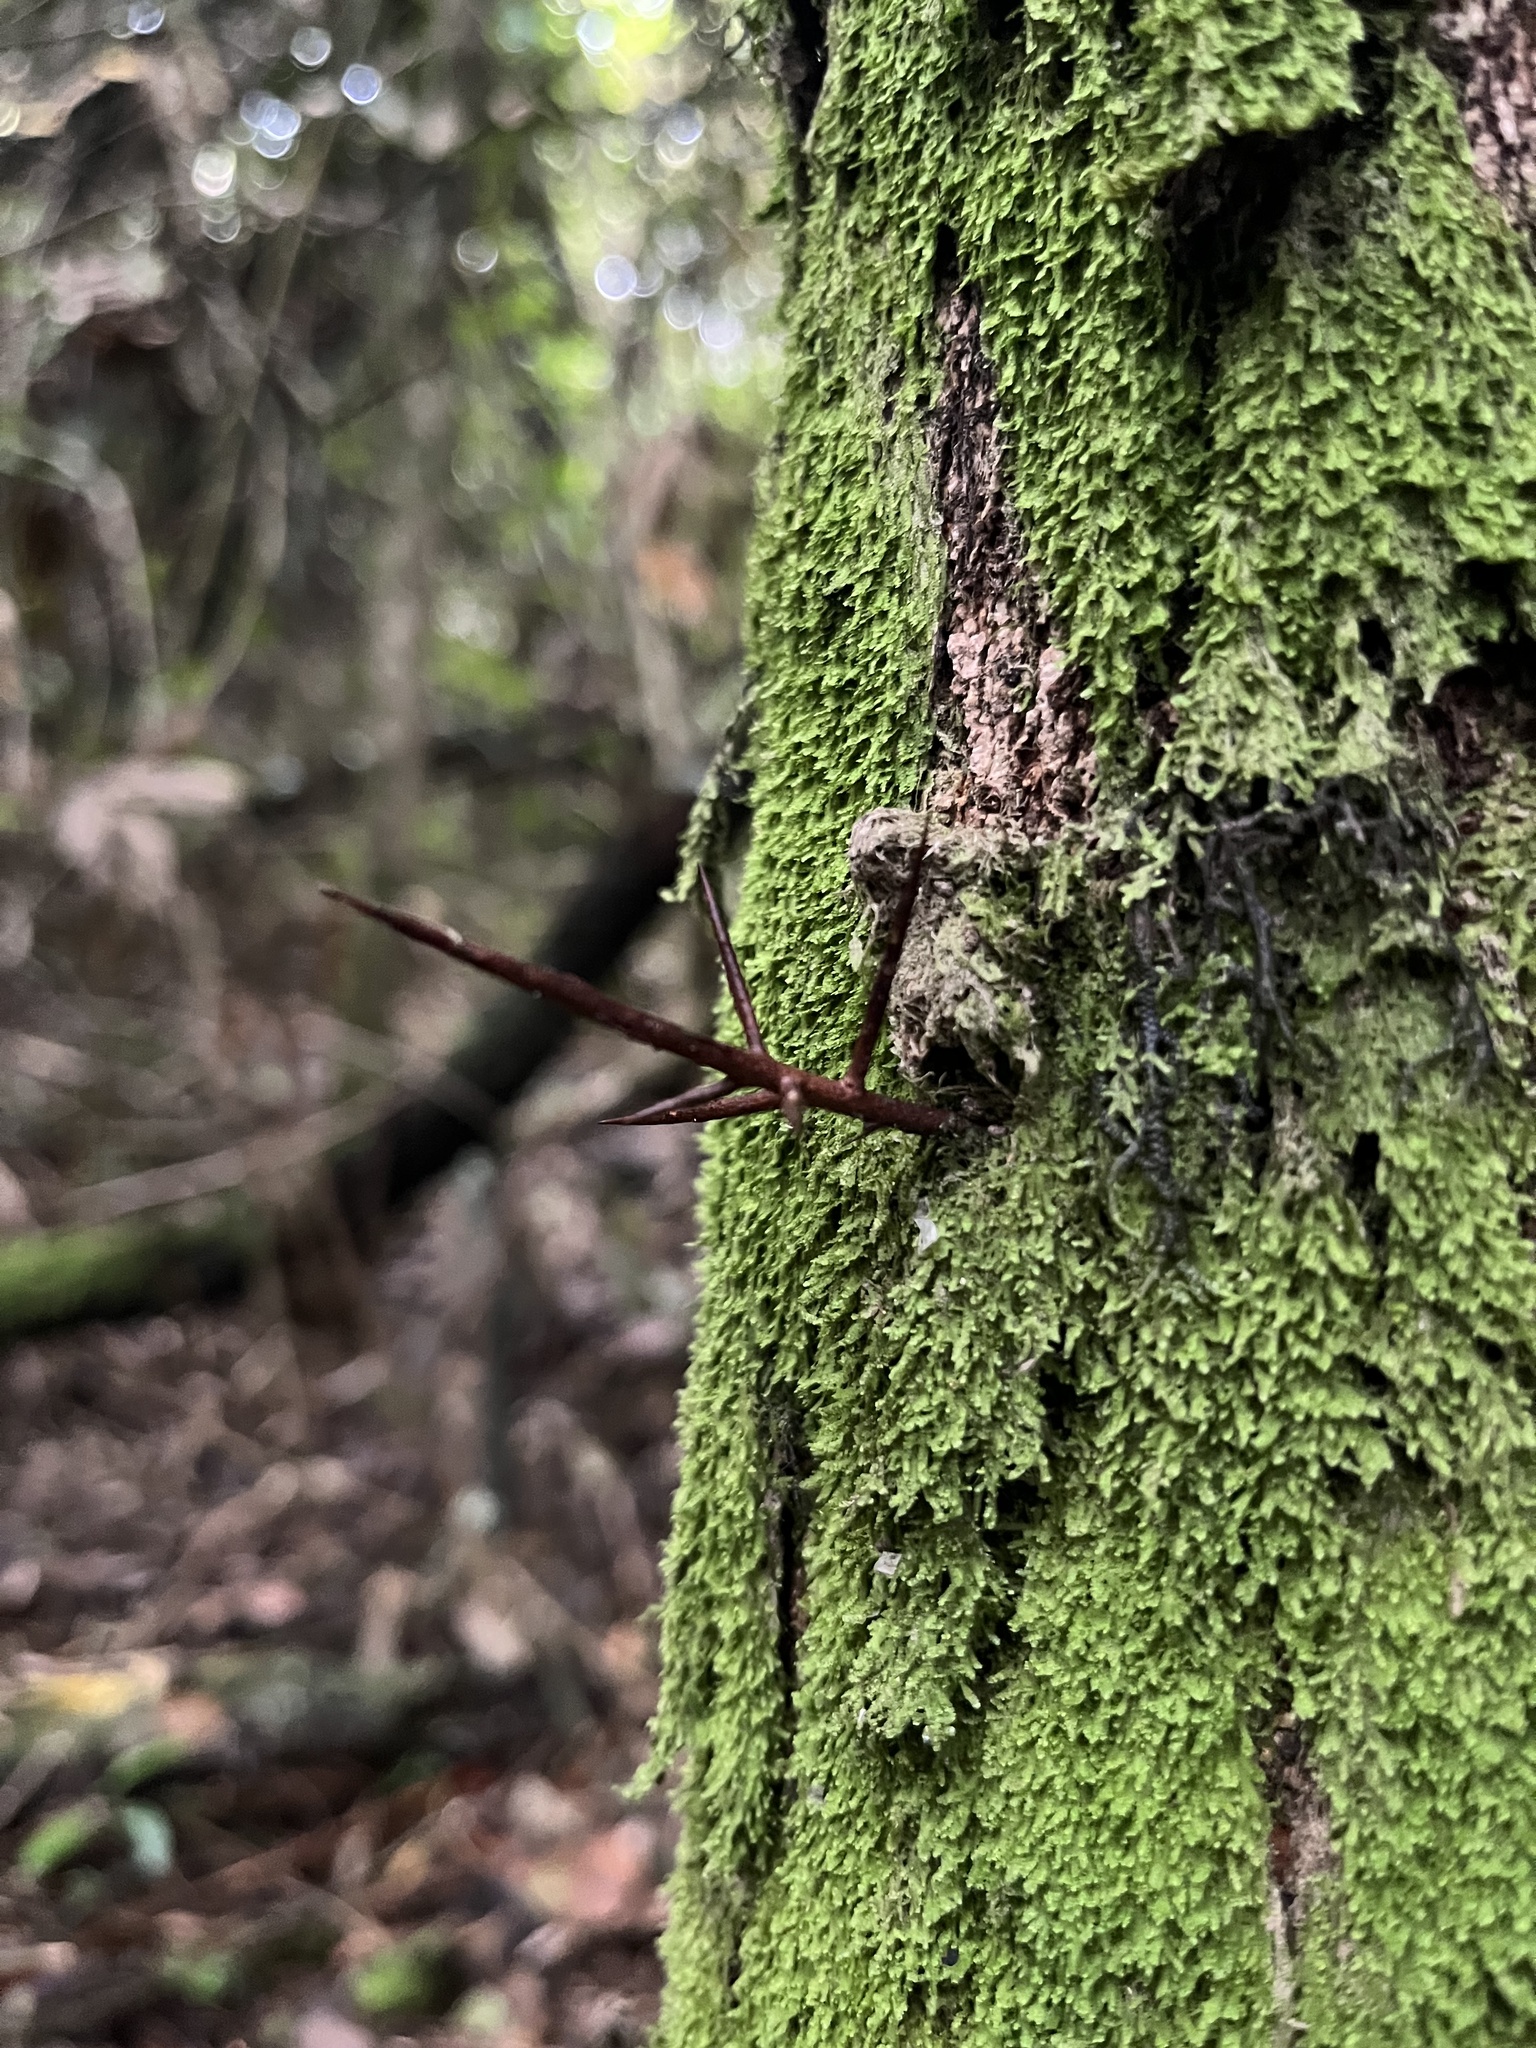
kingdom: Plantae
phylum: Tracheophyta
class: Magnoliopsida
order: Malpighiales
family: Salicaceae
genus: Xylosma
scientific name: Xylosma spiculifera
